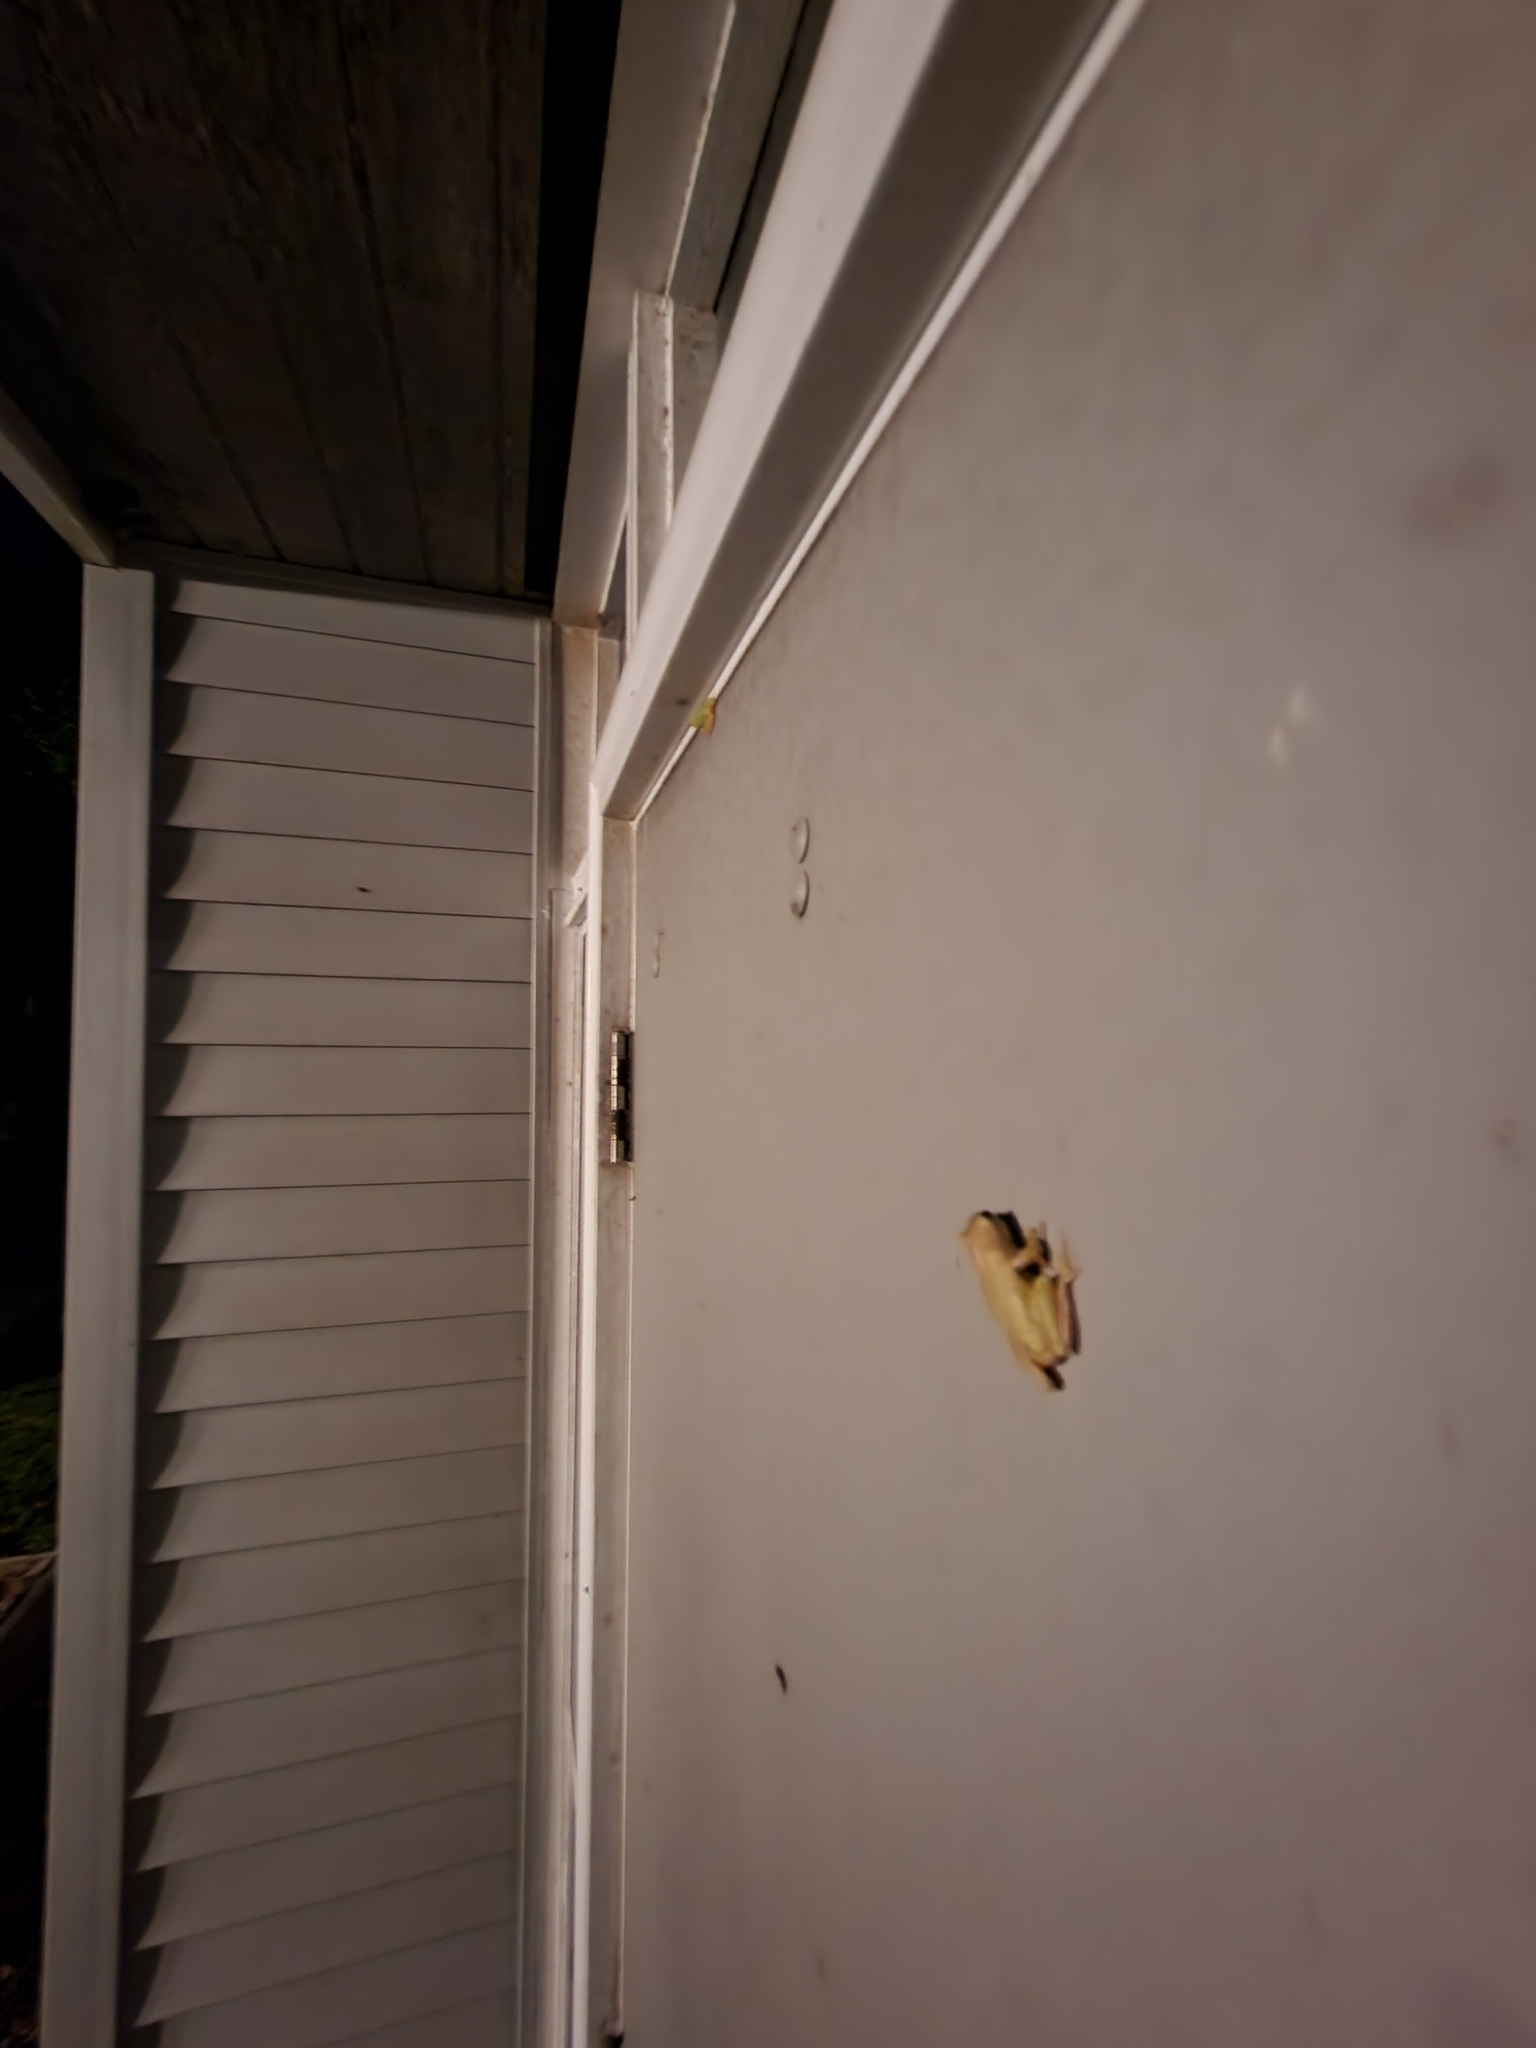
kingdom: Animalia
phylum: Chordata
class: Amphibia
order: Anura
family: Hylidae
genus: Dryophytes
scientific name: Dryophytes squirellus
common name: Squirrel treefrog
